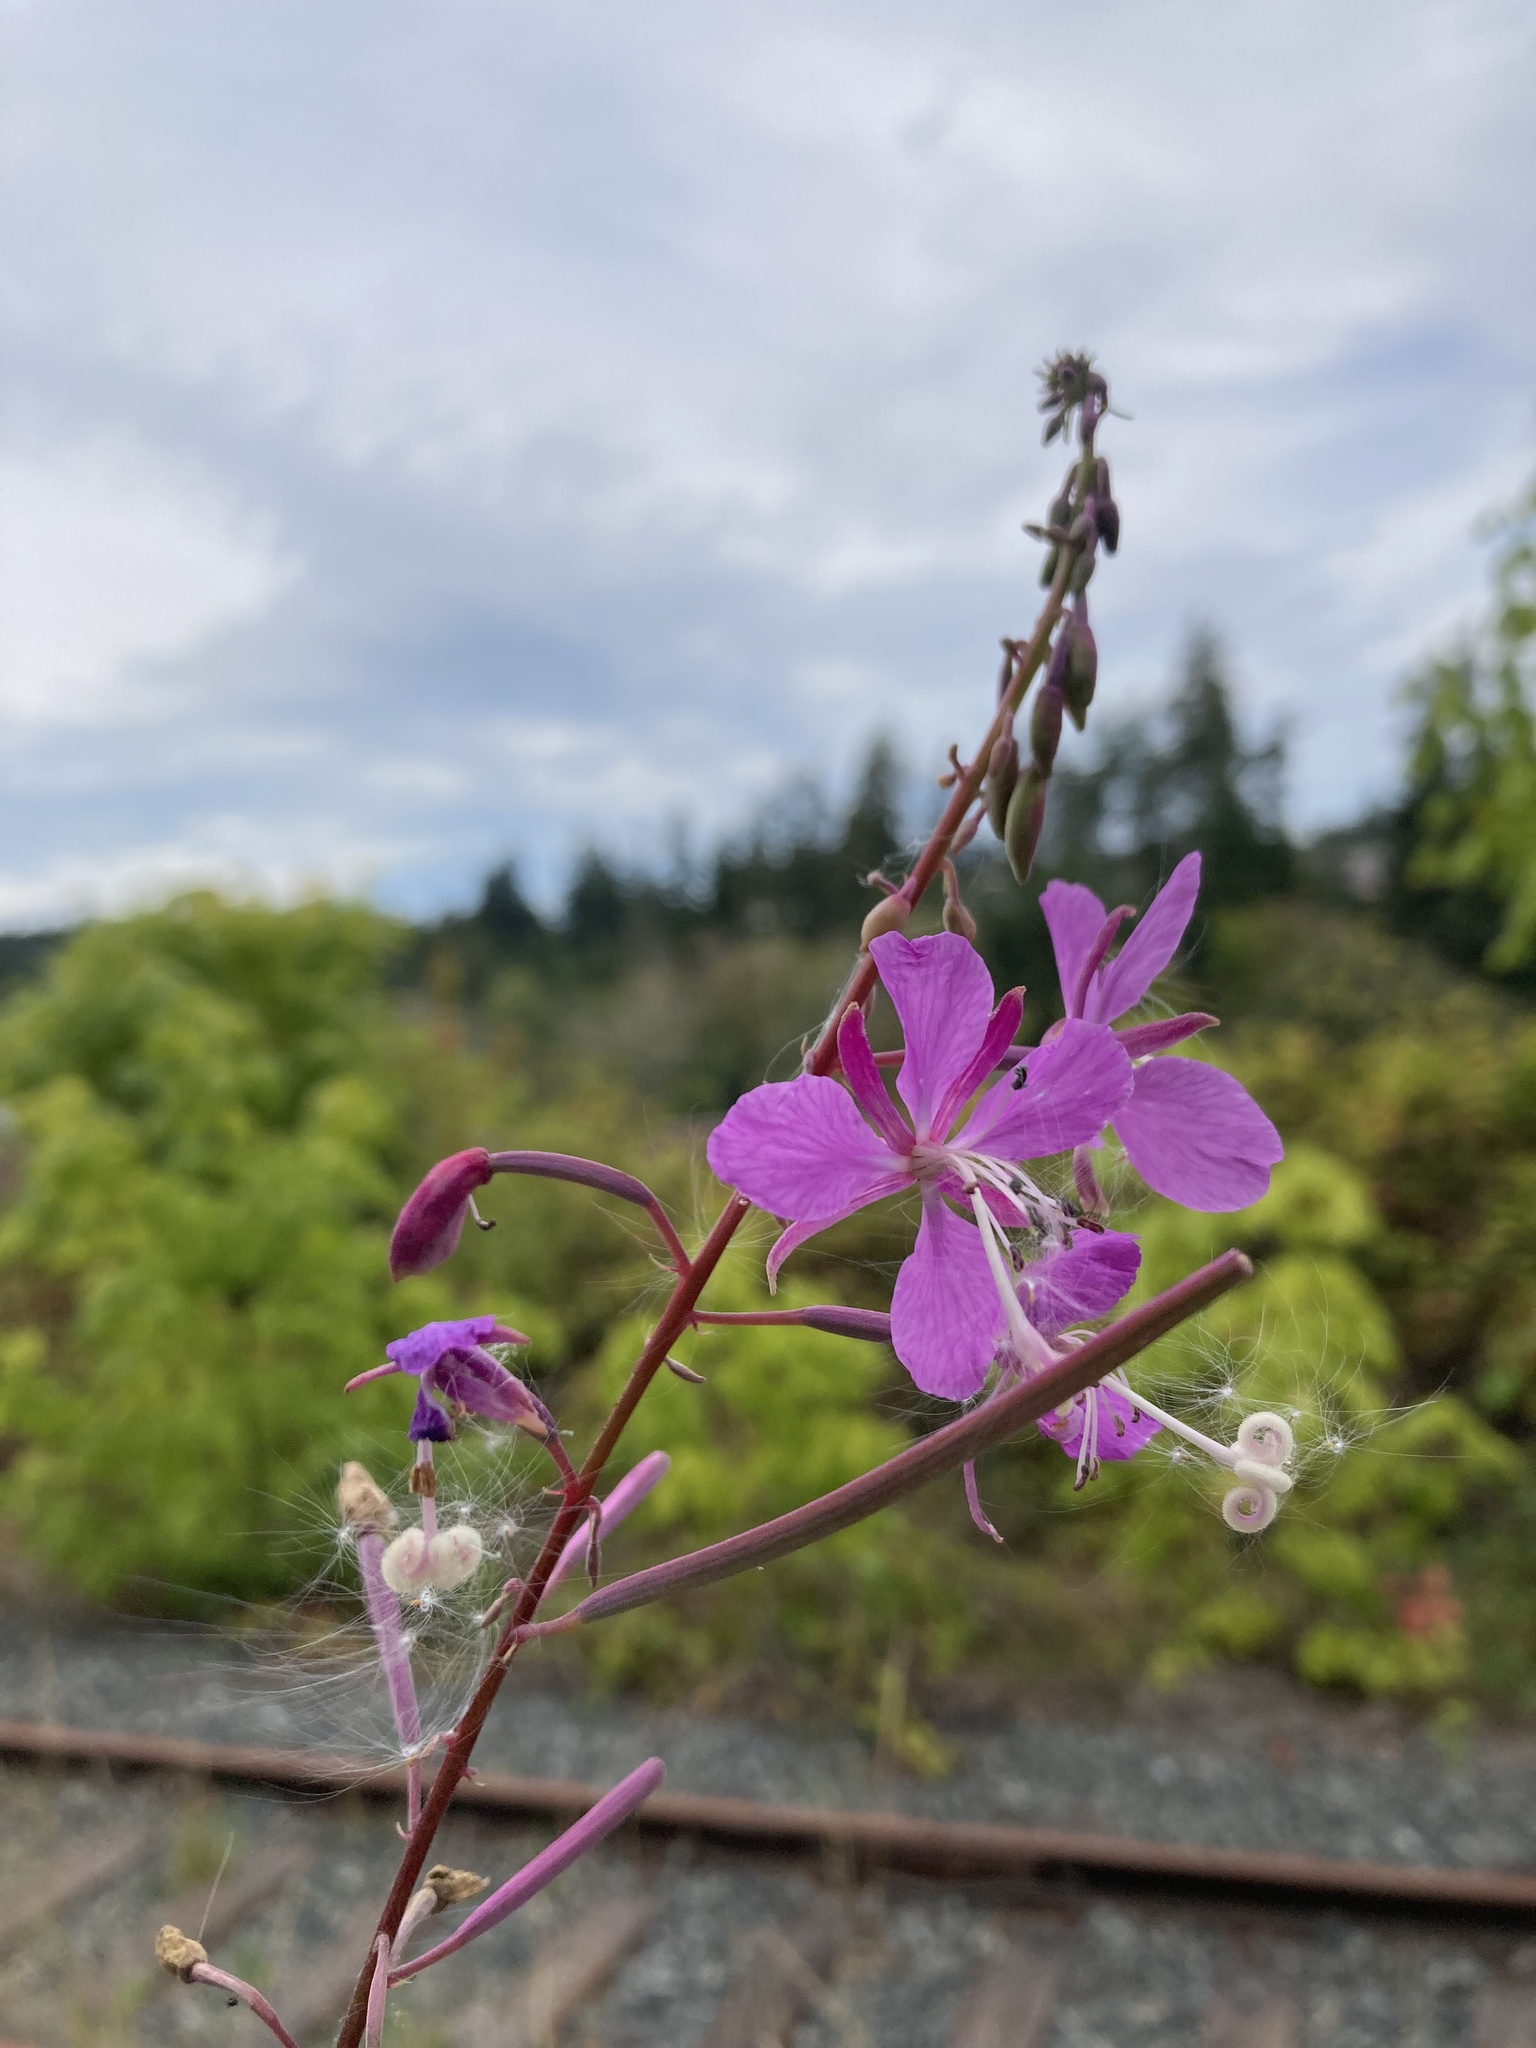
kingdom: Plantae
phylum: Tracheophyta
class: Magnoliopsida
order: Myrtales
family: Onagraceae
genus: Chamaenerion
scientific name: Chamaenerion angustifolium
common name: Fireweed
